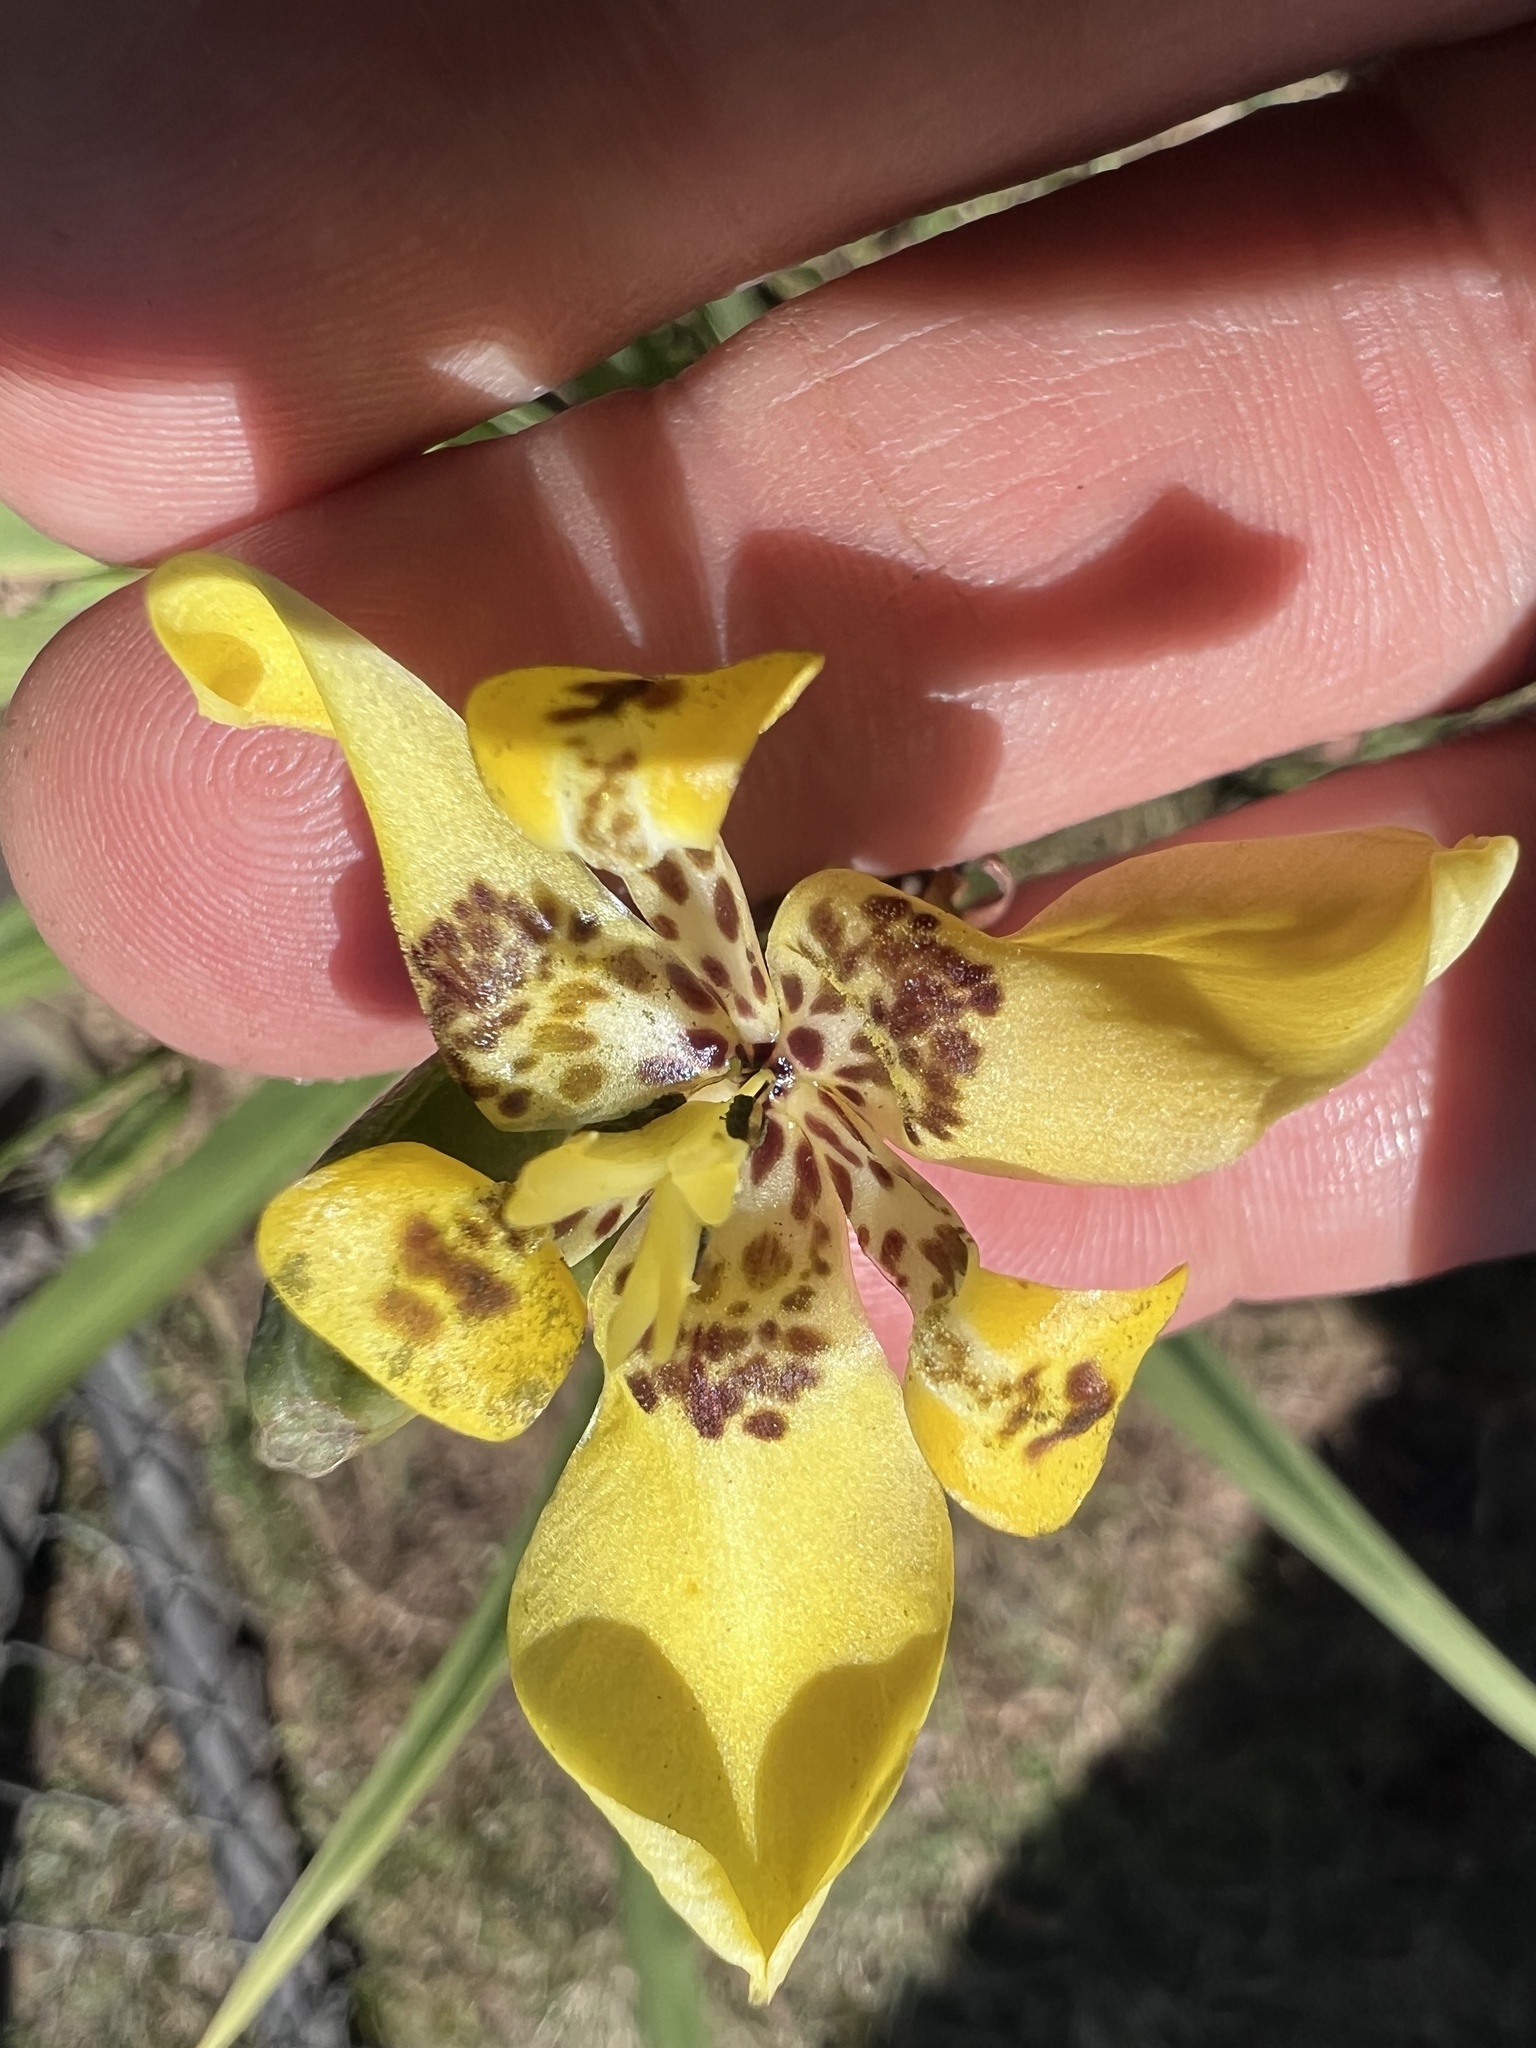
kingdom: Plantae
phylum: Tracheophyta
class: Liliopsida
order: Asparagales
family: Iridaceae
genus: Trimezia
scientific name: Trimezia steyermarkii
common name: Trimezia
